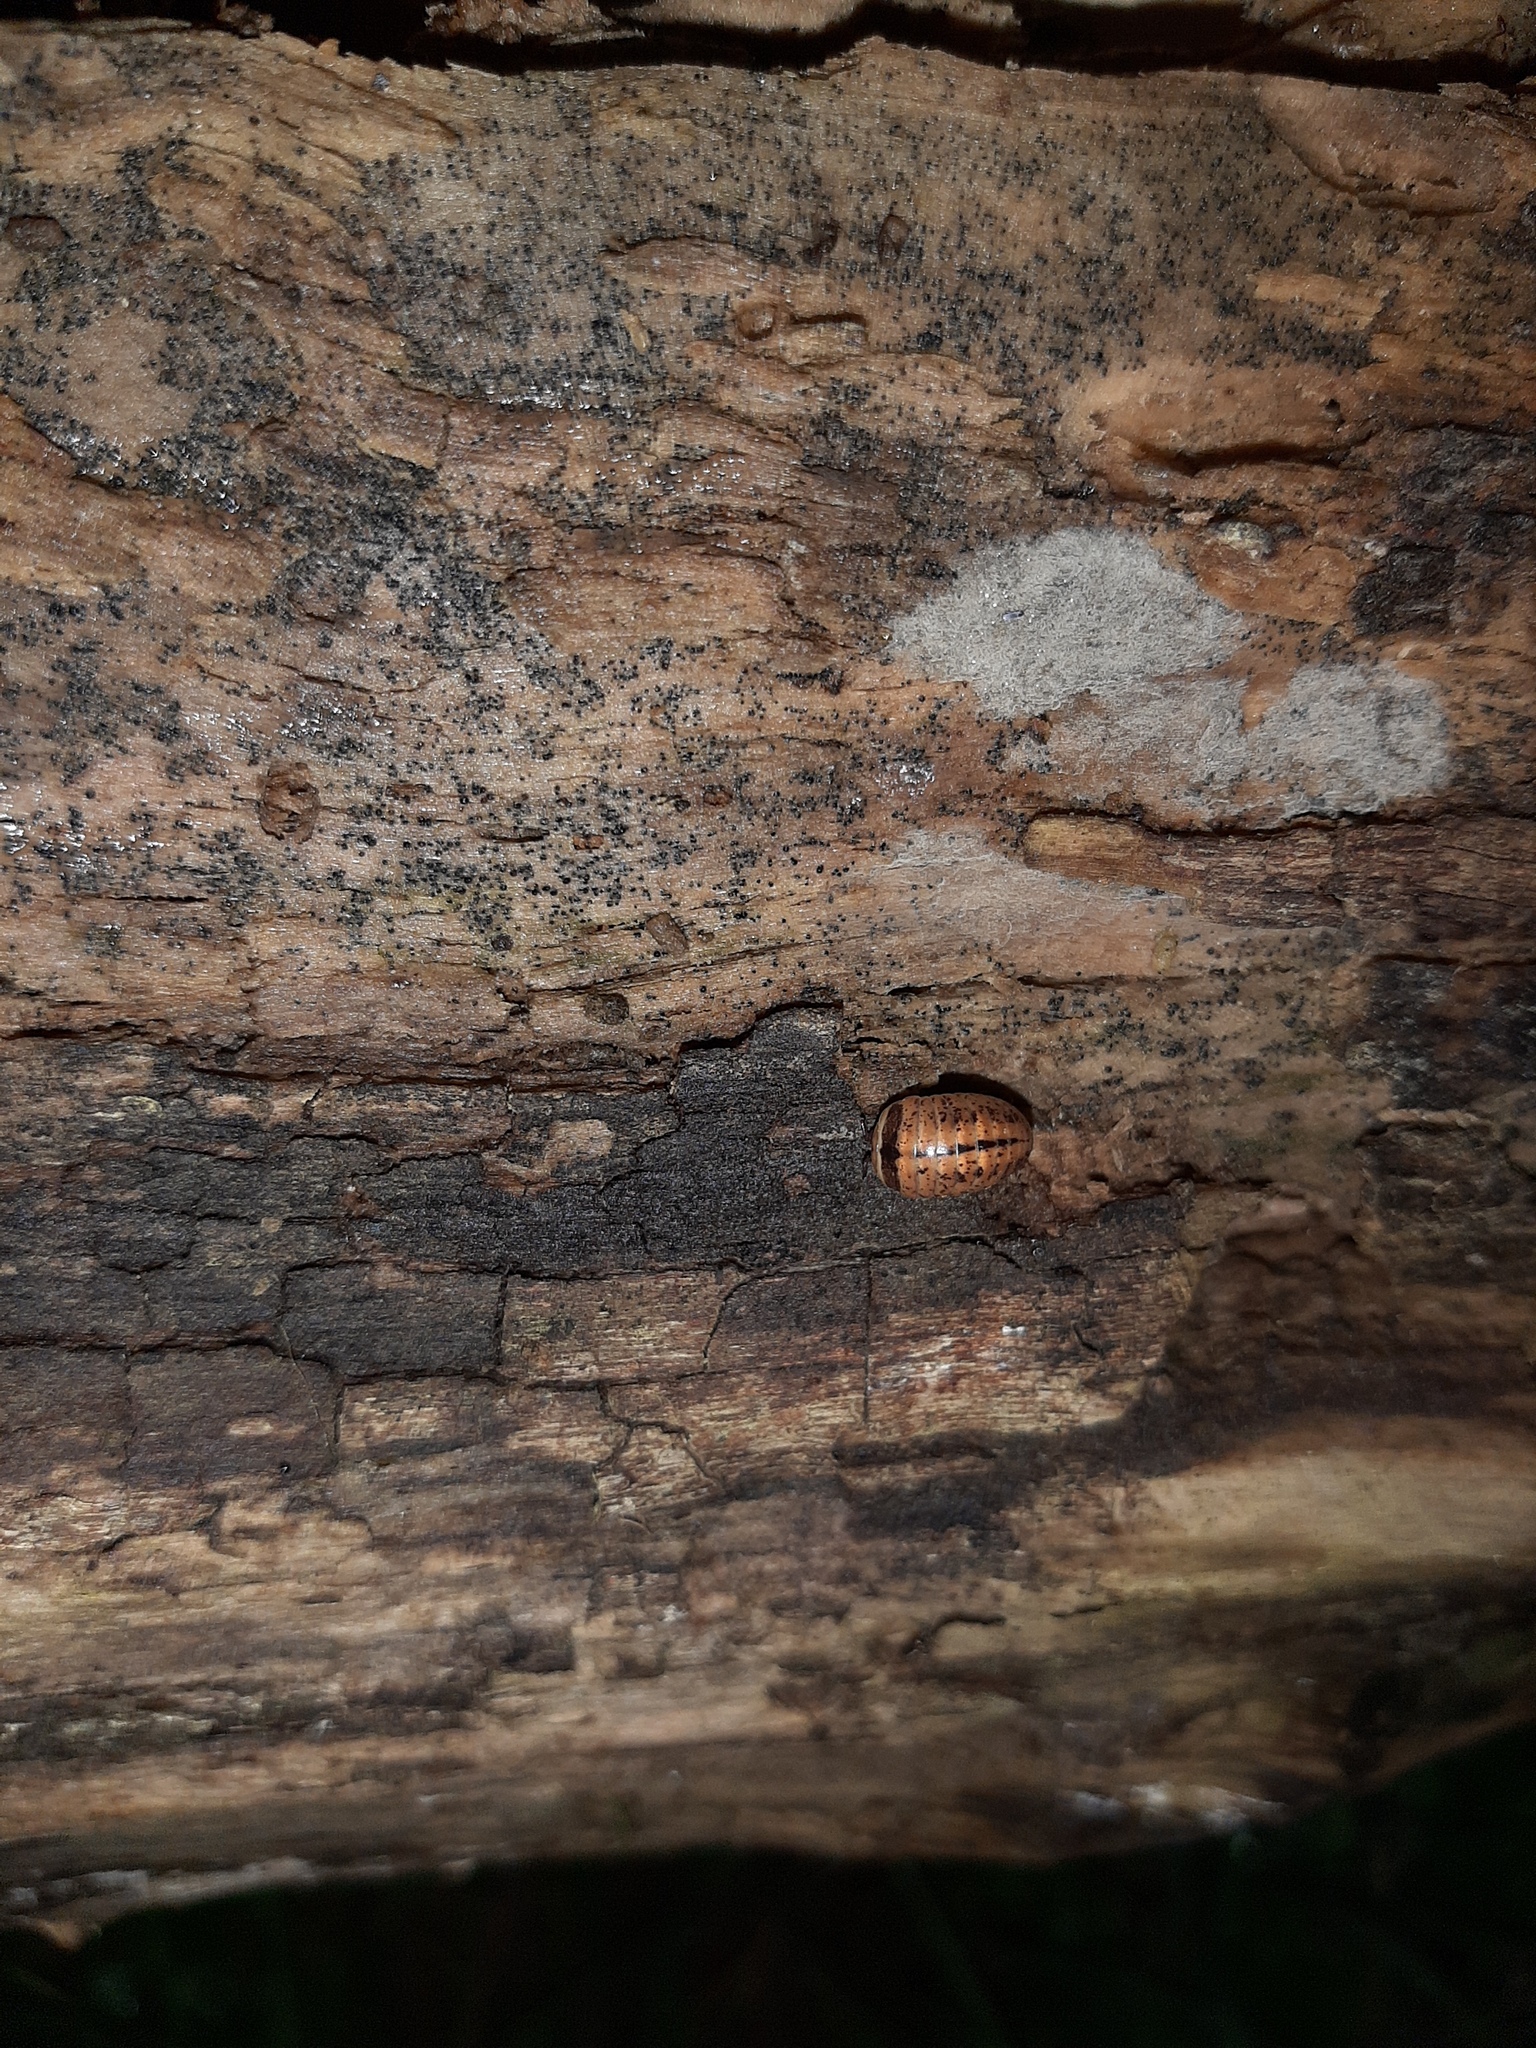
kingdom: Animalia
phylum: Arthropoda
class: Diplopoda
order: Glomerida
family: Glomeridae
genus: Glomeris
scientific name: Glomeris klugii
